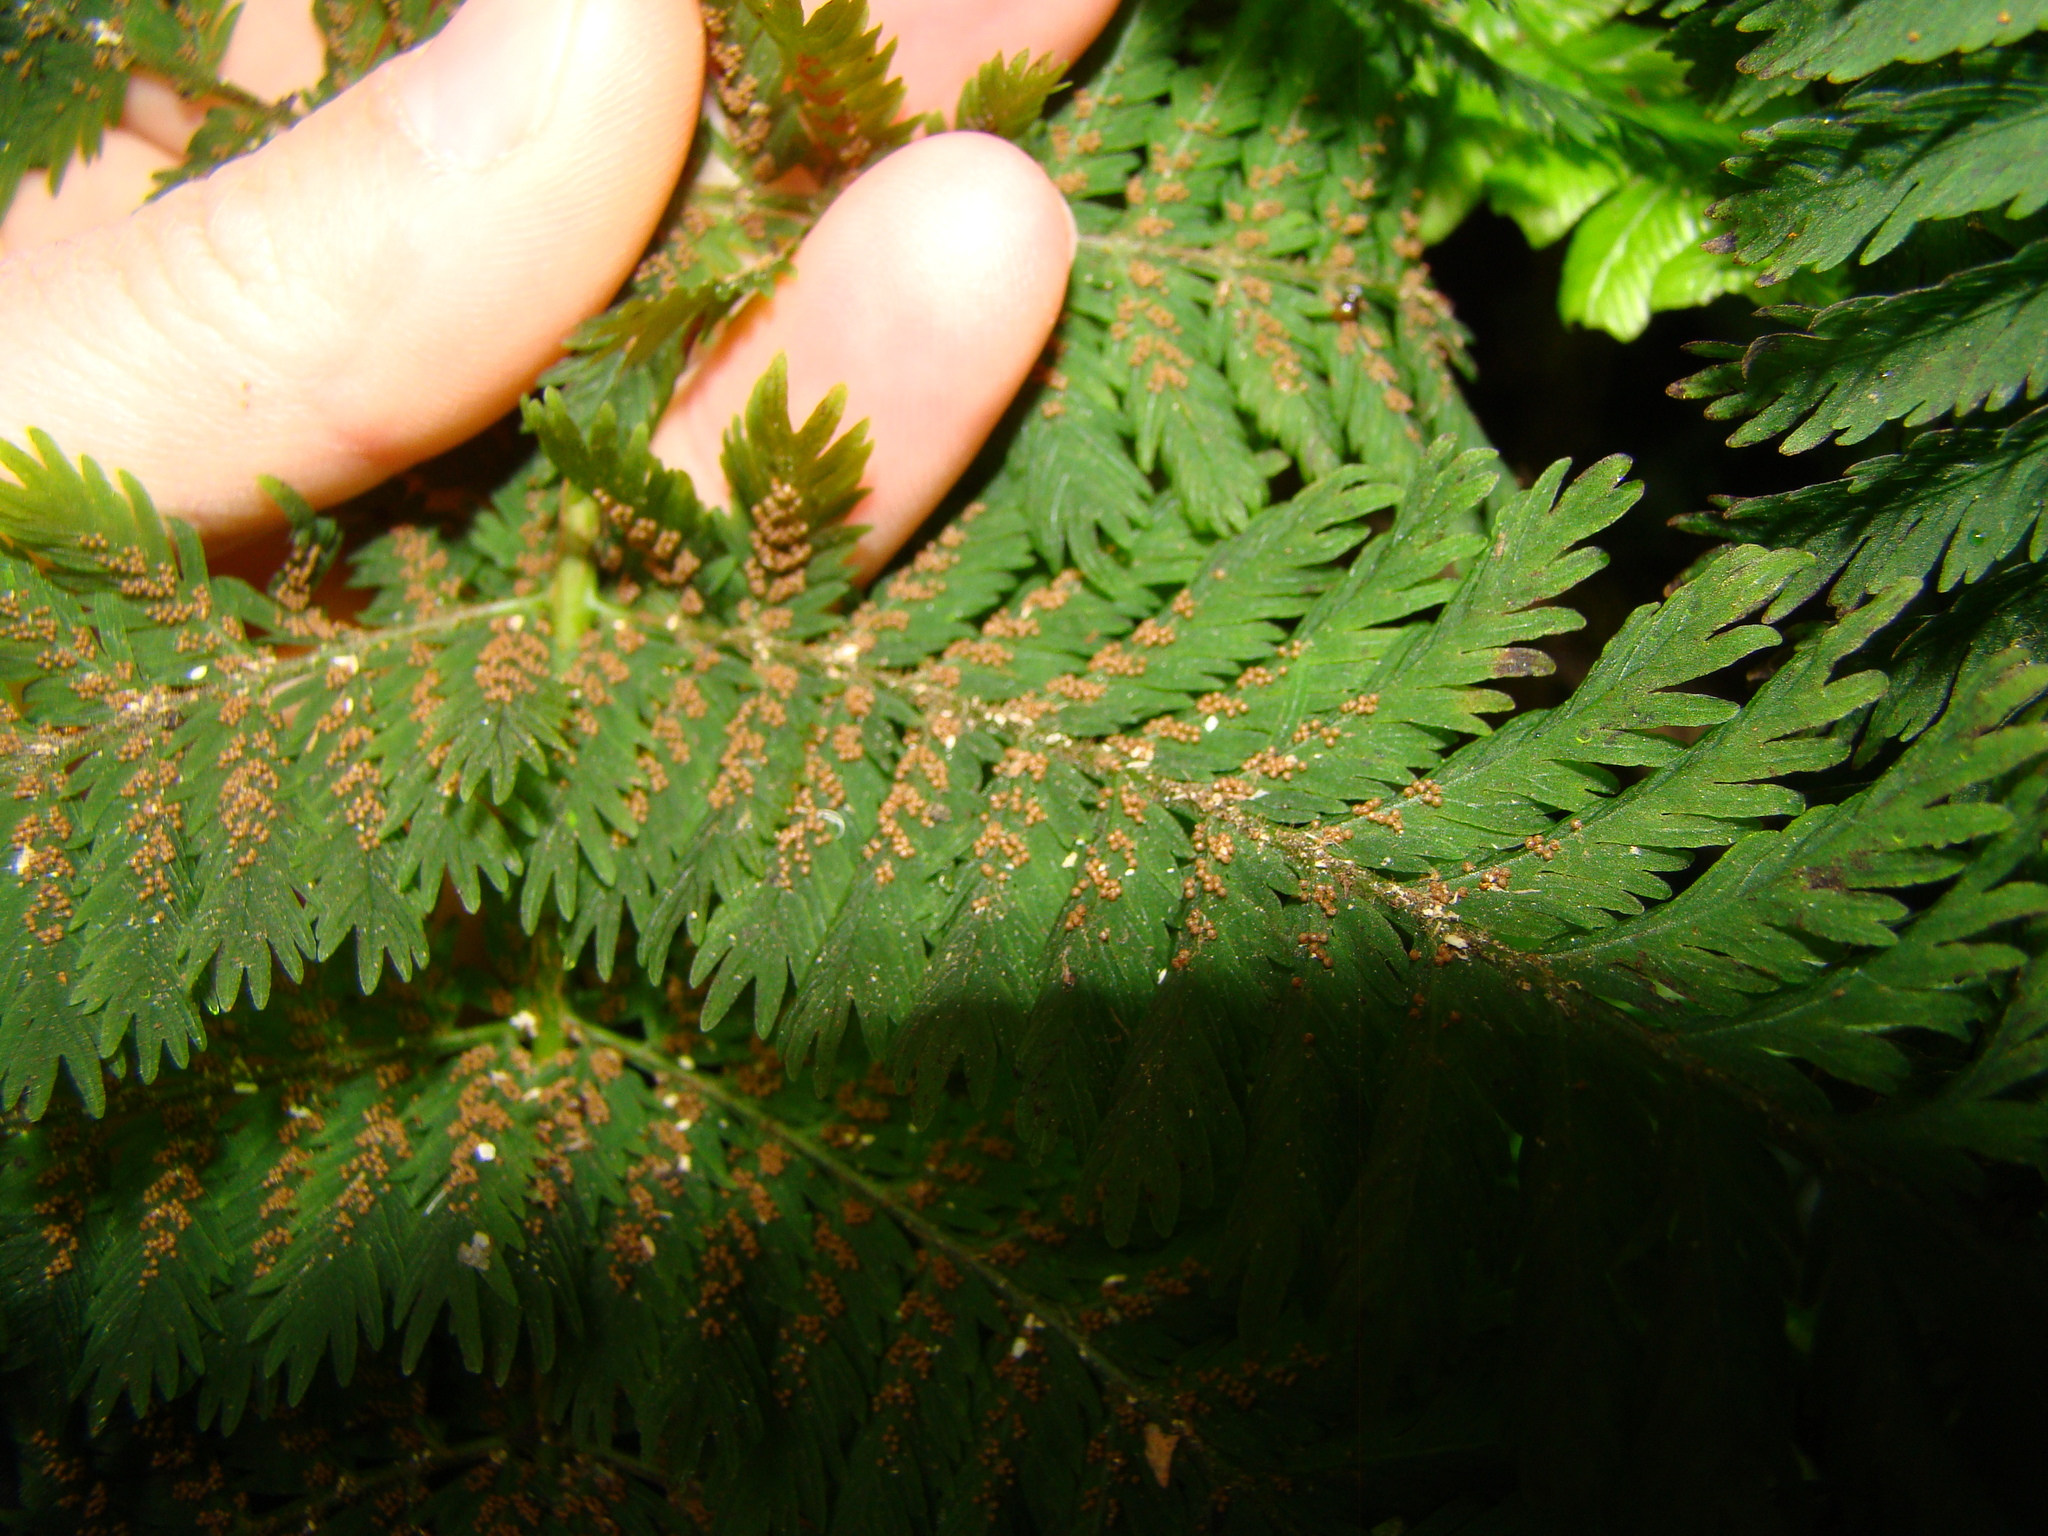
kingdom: Plantae
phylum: Tracheophyta
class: Polypodiopsida
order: Osmundales
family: Osmundaceae
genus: Leptopteris
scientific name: Leptopteris hymenophylloides
